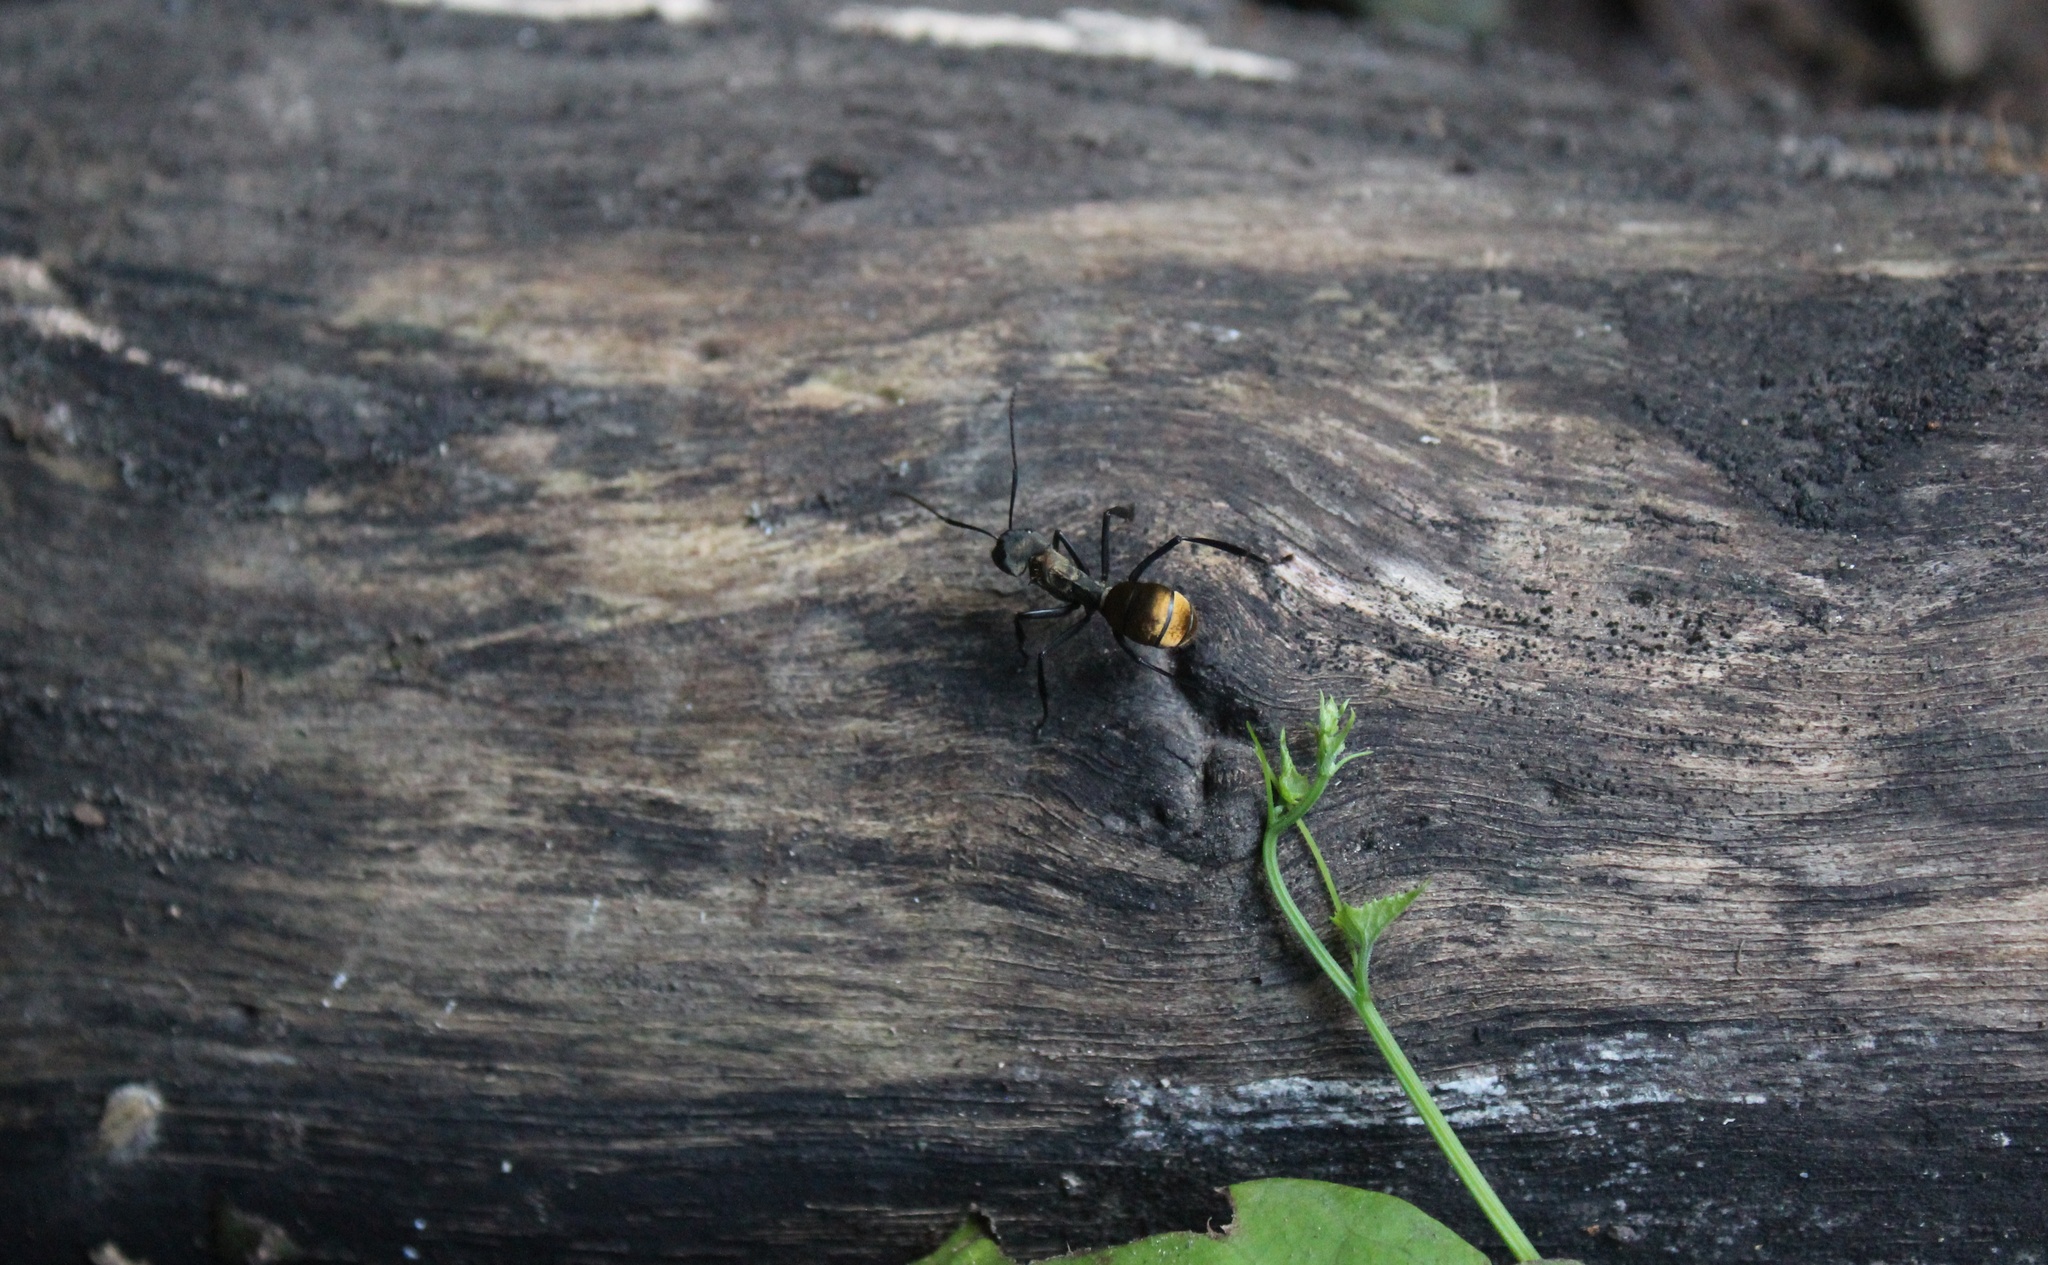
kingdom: Animalia
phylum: Arthropoda
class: Insecta
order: Hymenoptera
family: Formicidae
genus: Camponotus
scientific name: Camponotus sericeiventris
